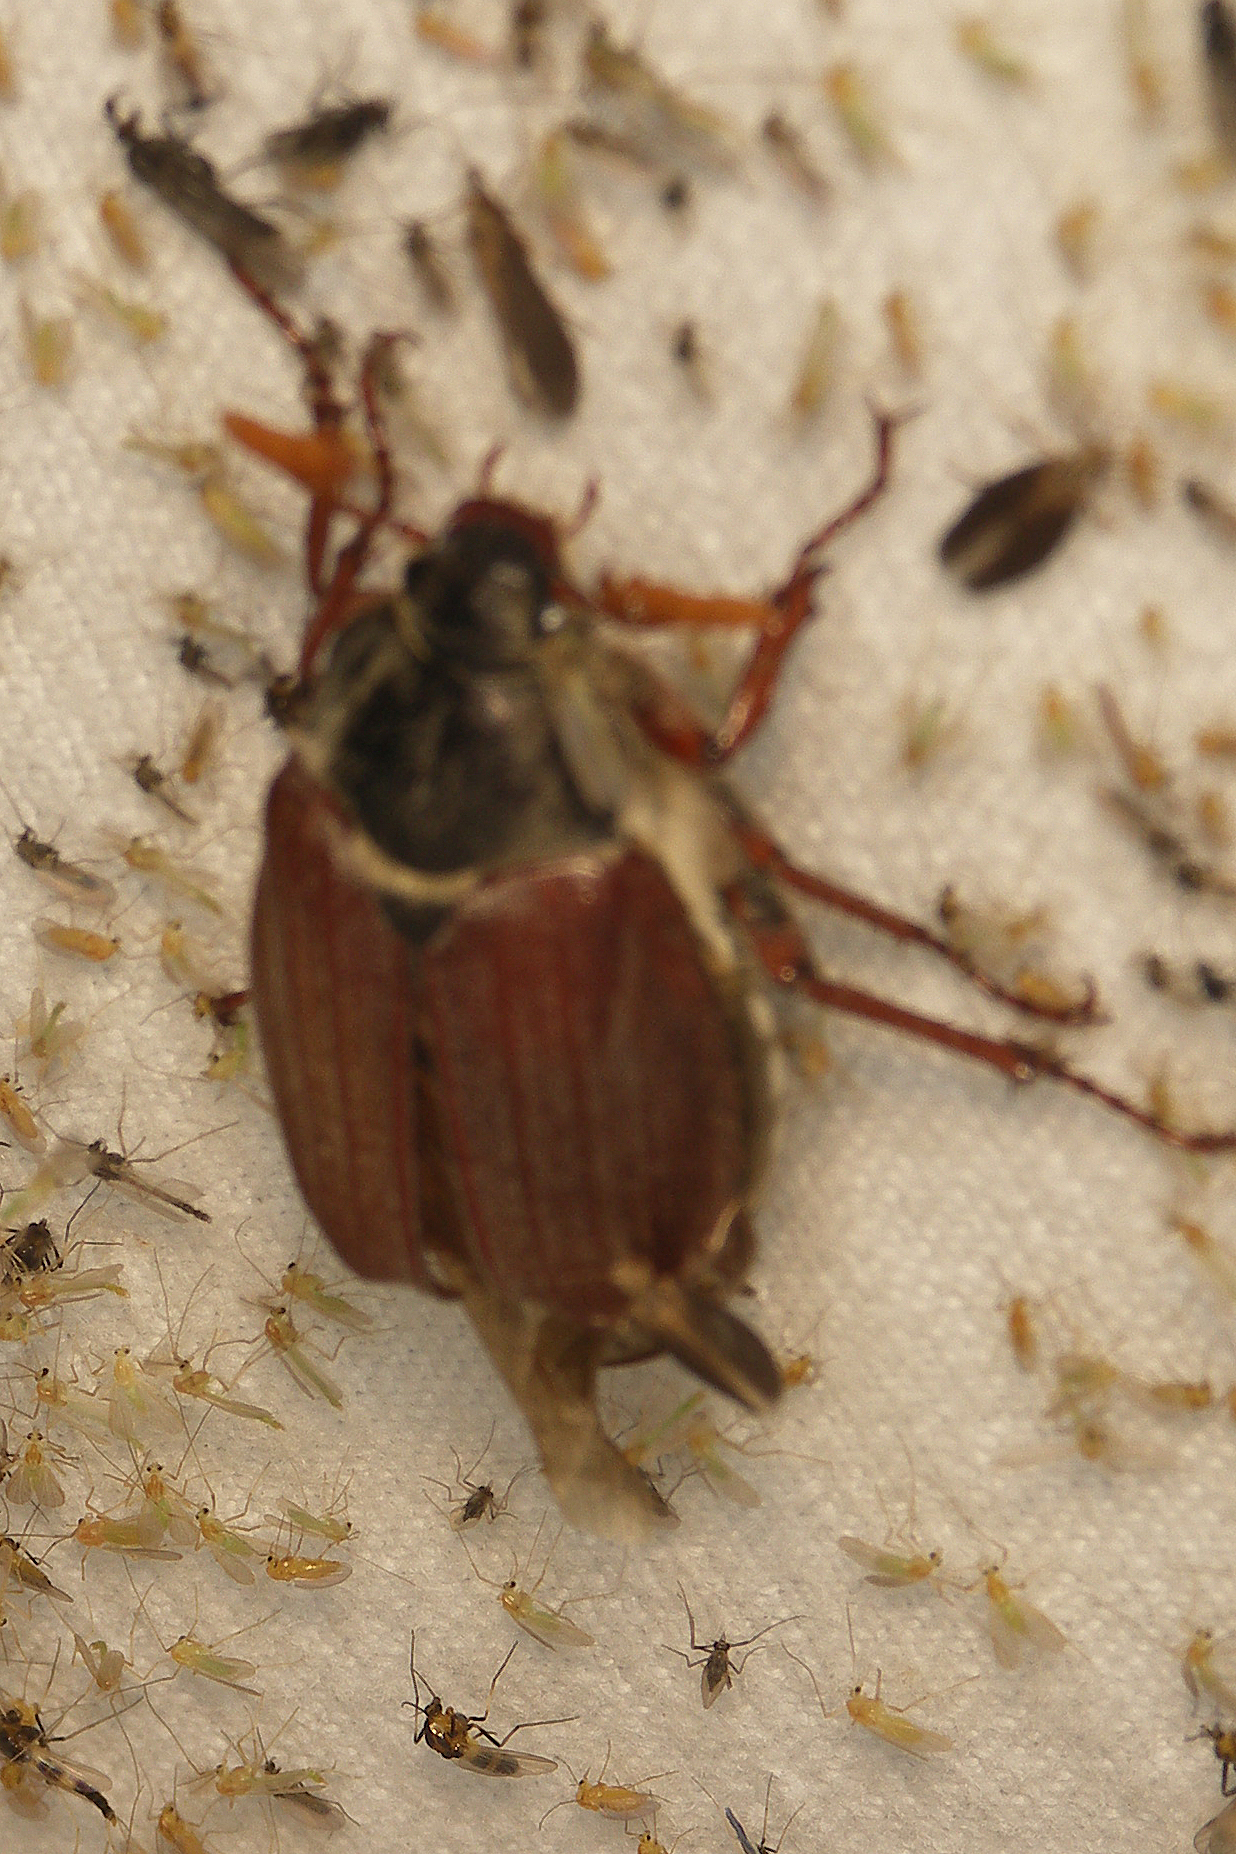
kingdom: Animalia
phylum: Arthropoda
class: Insecta
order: Coleoptera
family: Scarabaeidae
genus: Melolontha
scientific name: Melolontha melolontha
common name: Cockchafer maybeetle
